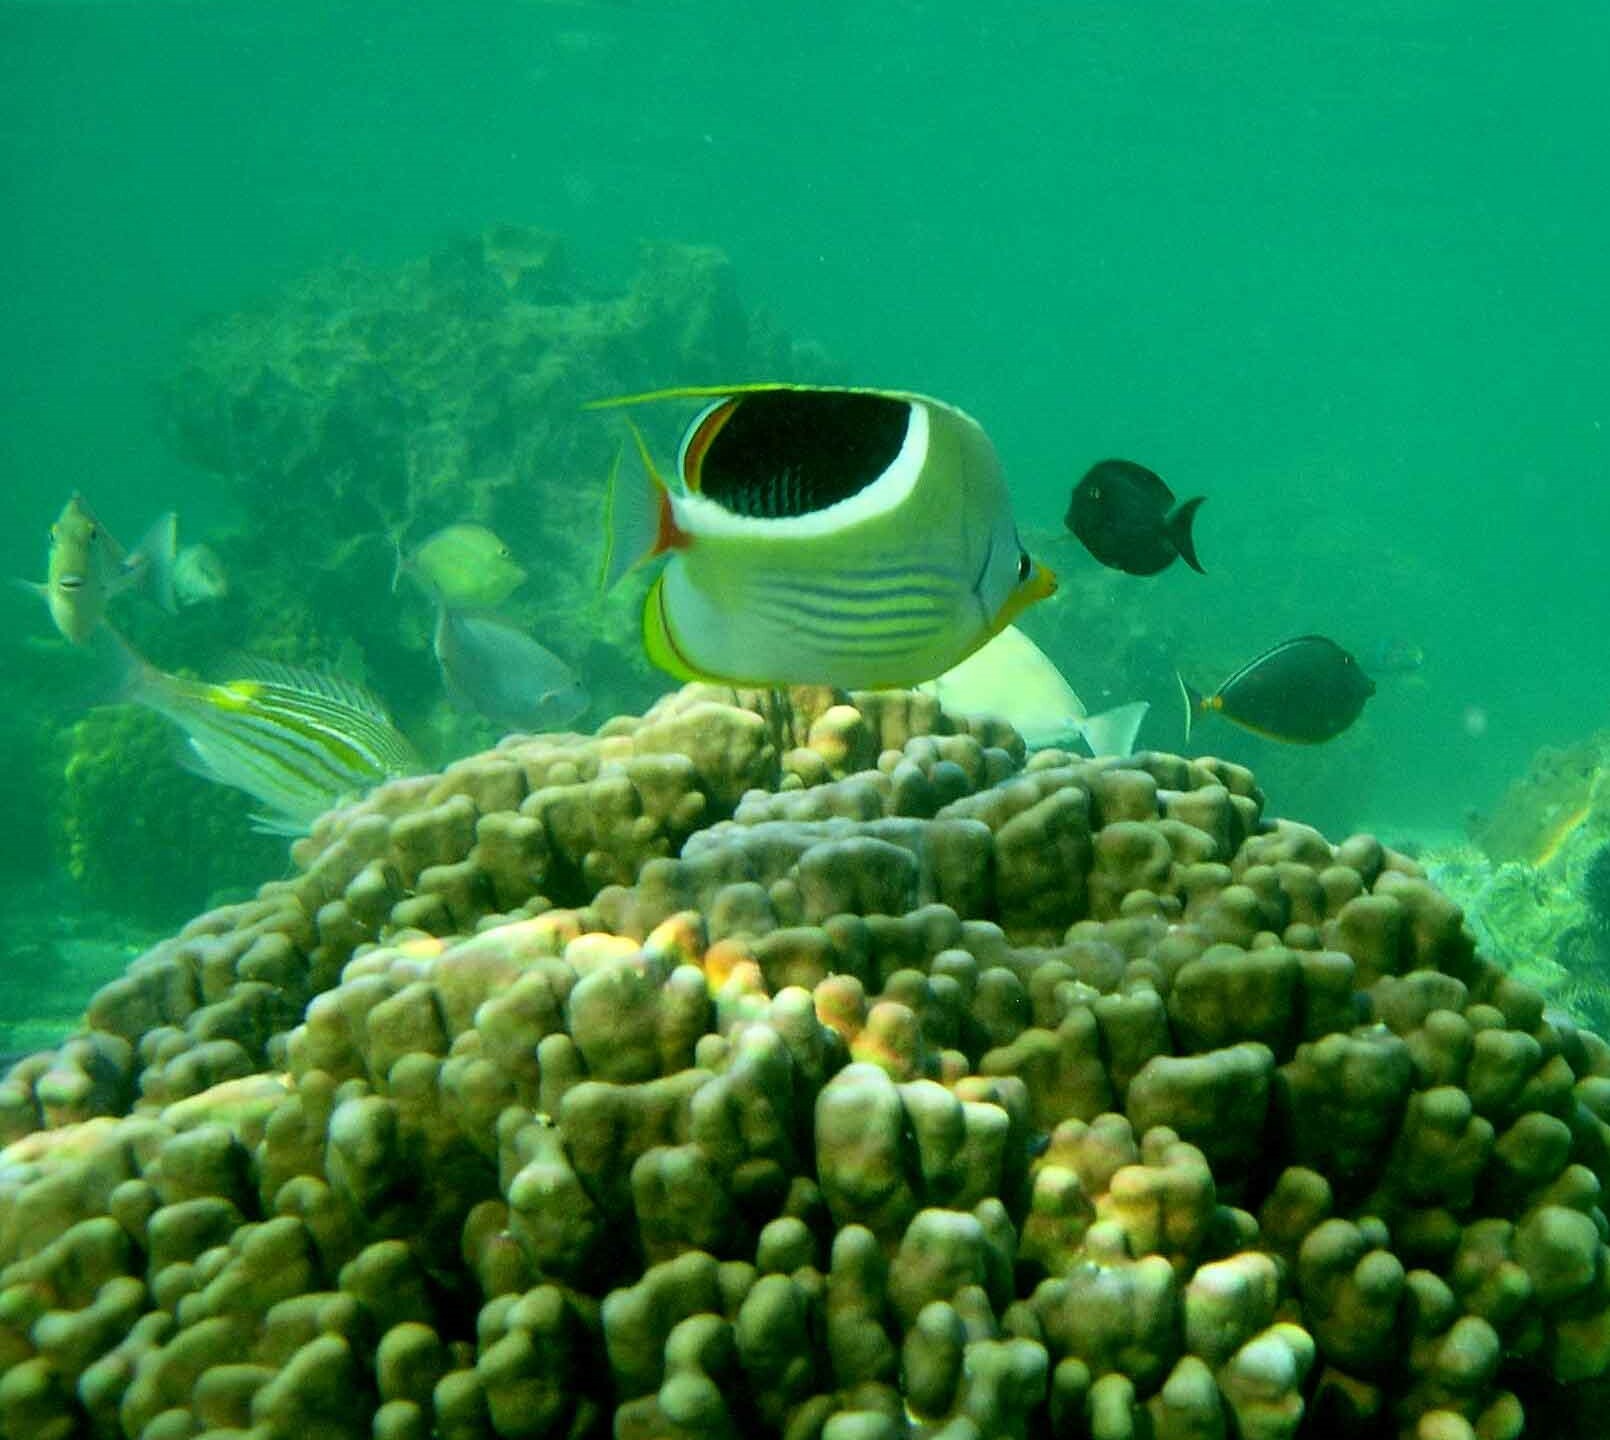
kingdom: Animalia
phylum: Chordata
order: Perciformes
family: Chaetodontidae
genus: Chaetodon
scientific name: Chaetodon ephippium
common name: Saddled butterflyfish
